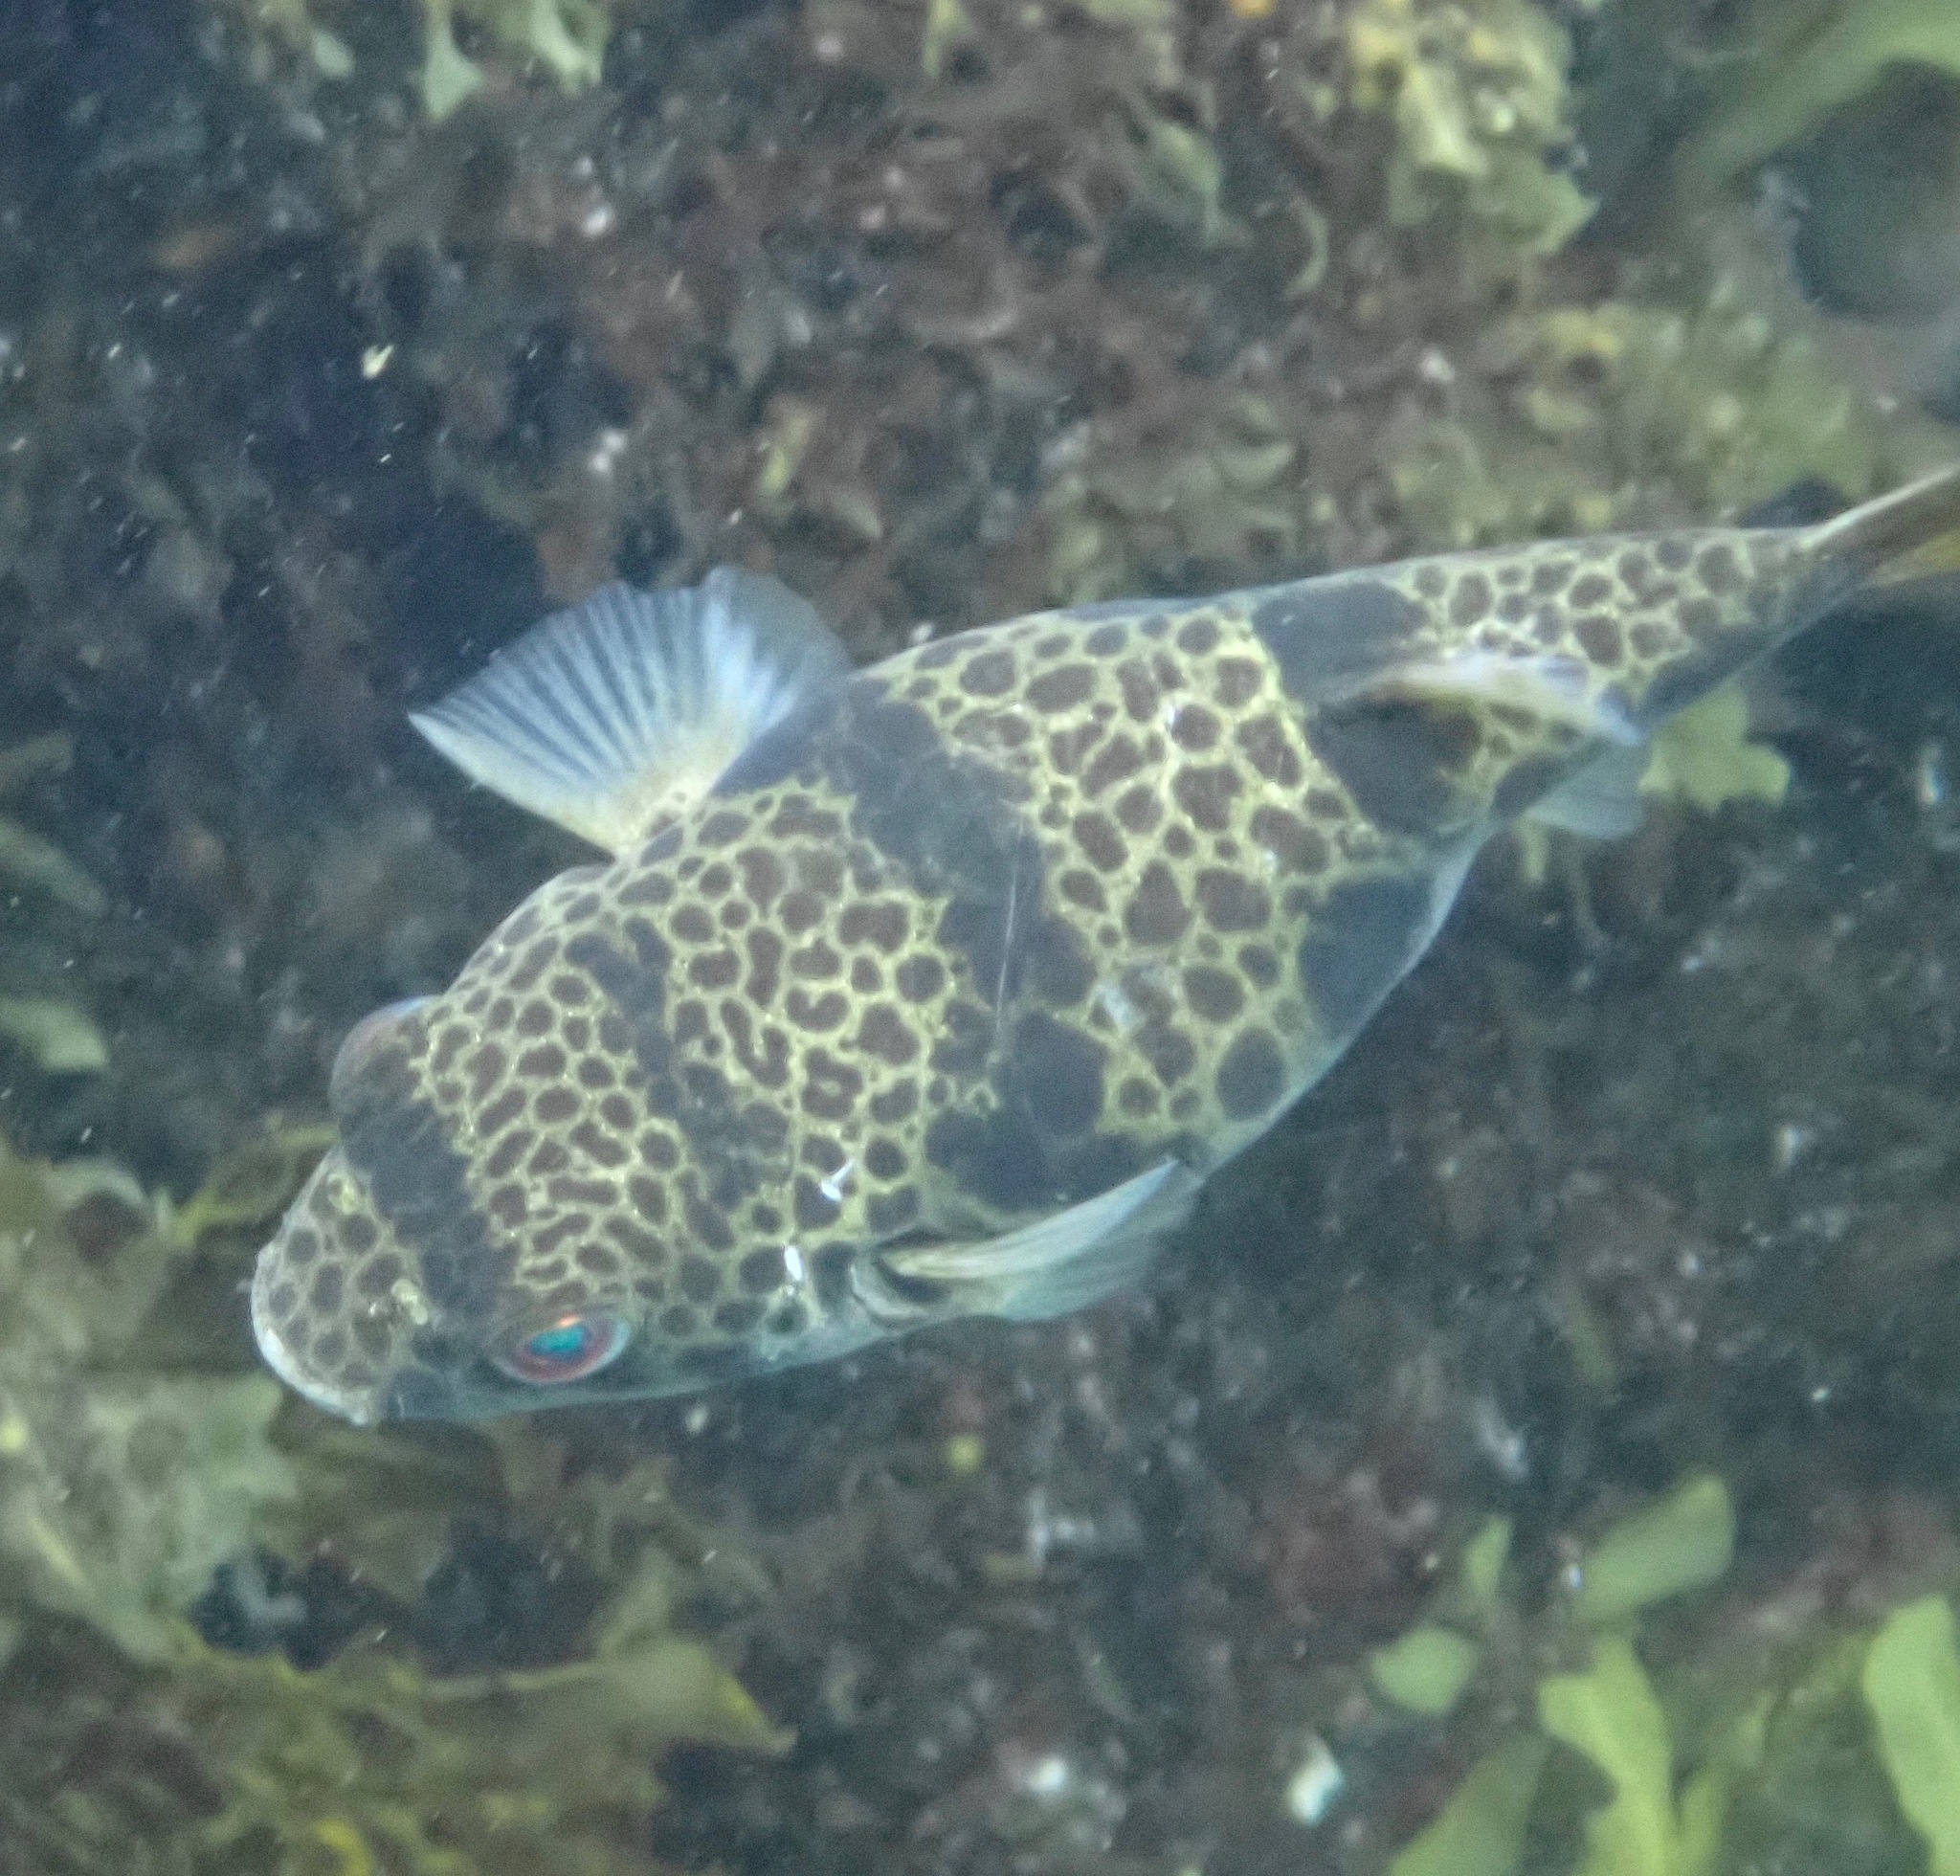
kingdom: Animalia
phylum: Chordata
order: Tetraodontiformes
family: Tetraodontidae
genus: Tetractenos
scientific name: Tetractenos glaber
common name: Smooth toadfish
